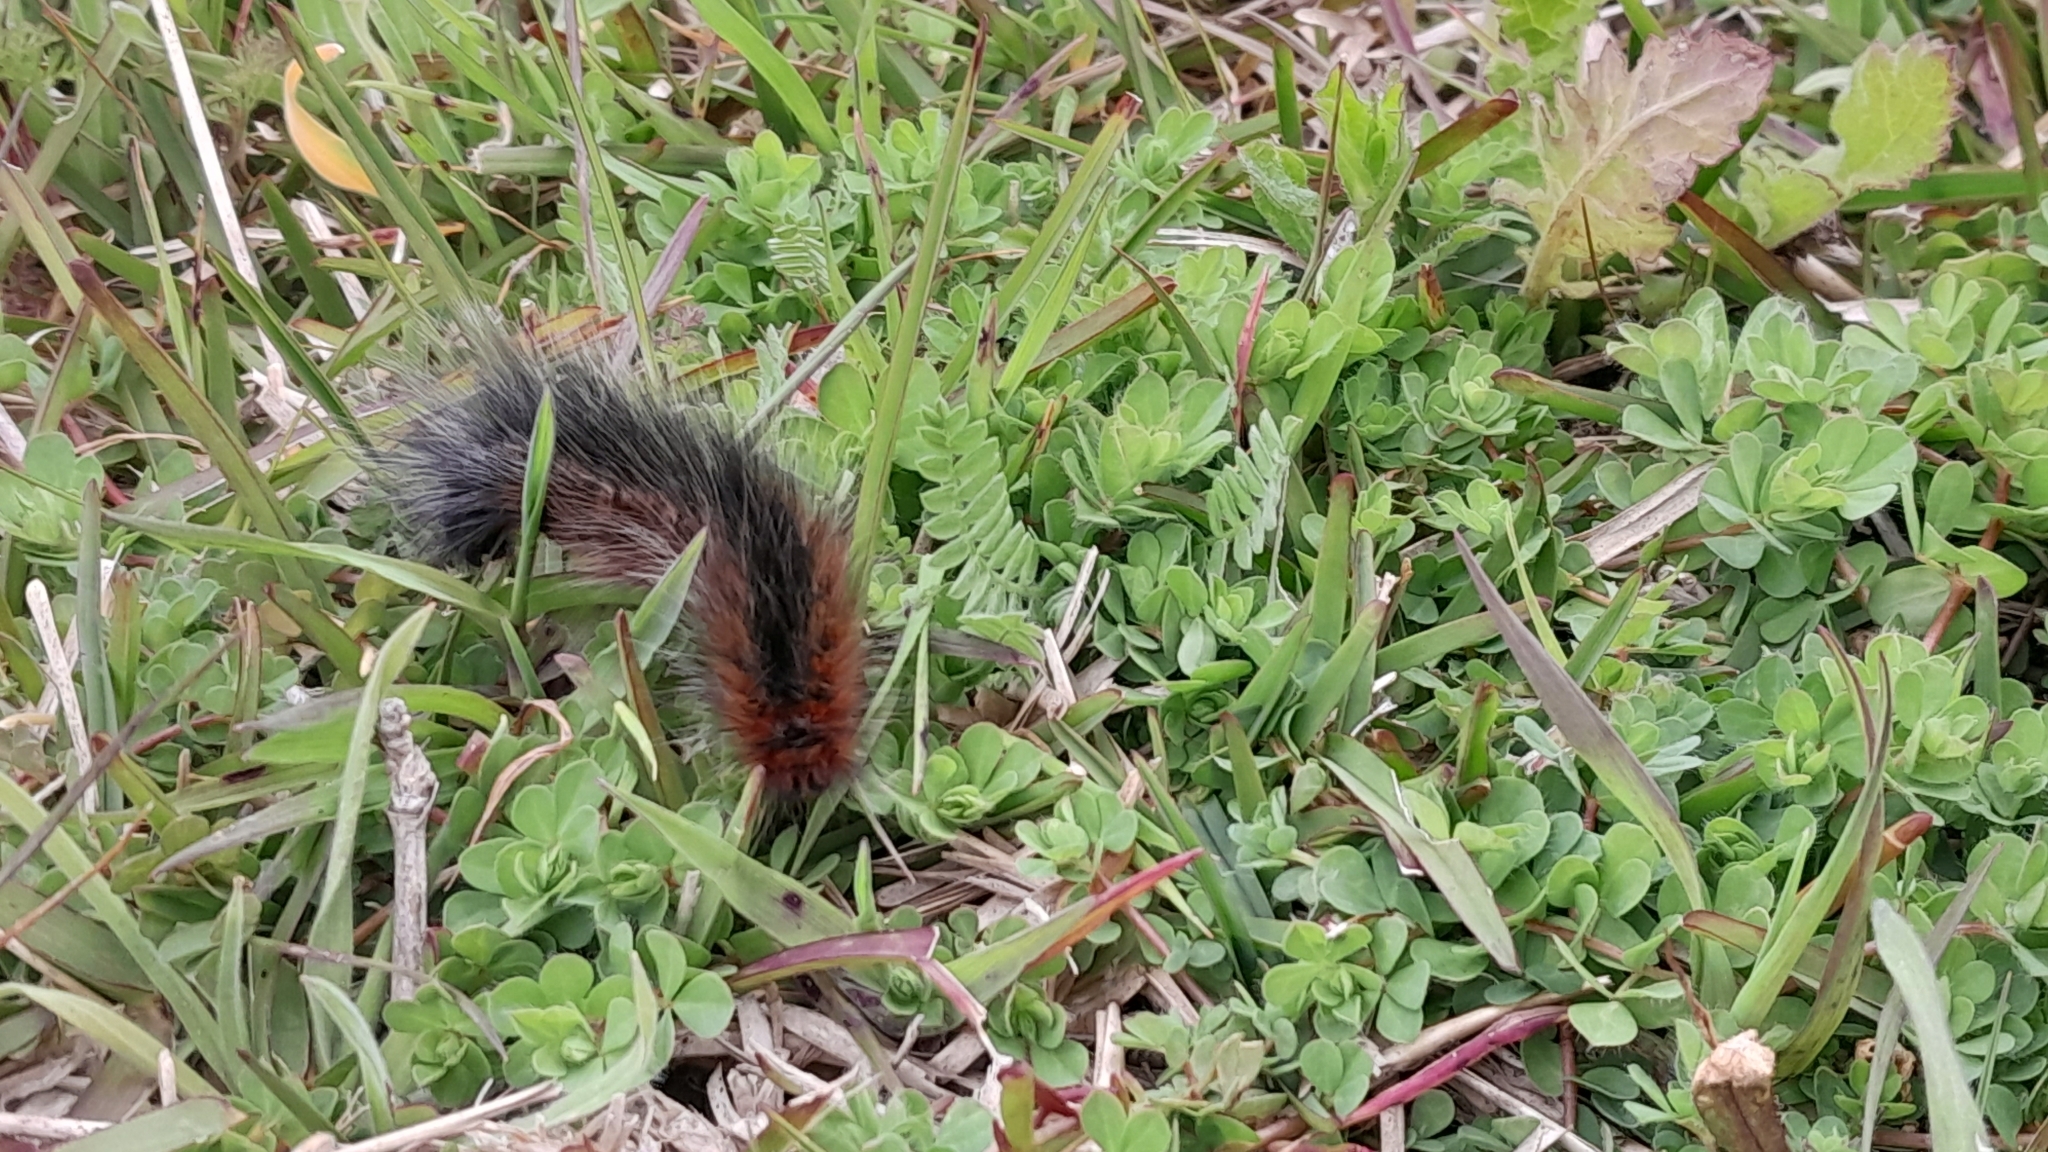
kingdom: Animalia
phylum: Arthropoda
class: Insecta
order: Lepidoptera
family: Lasiocampidae
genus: Mesocelis
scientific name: Mesocelis monticola
